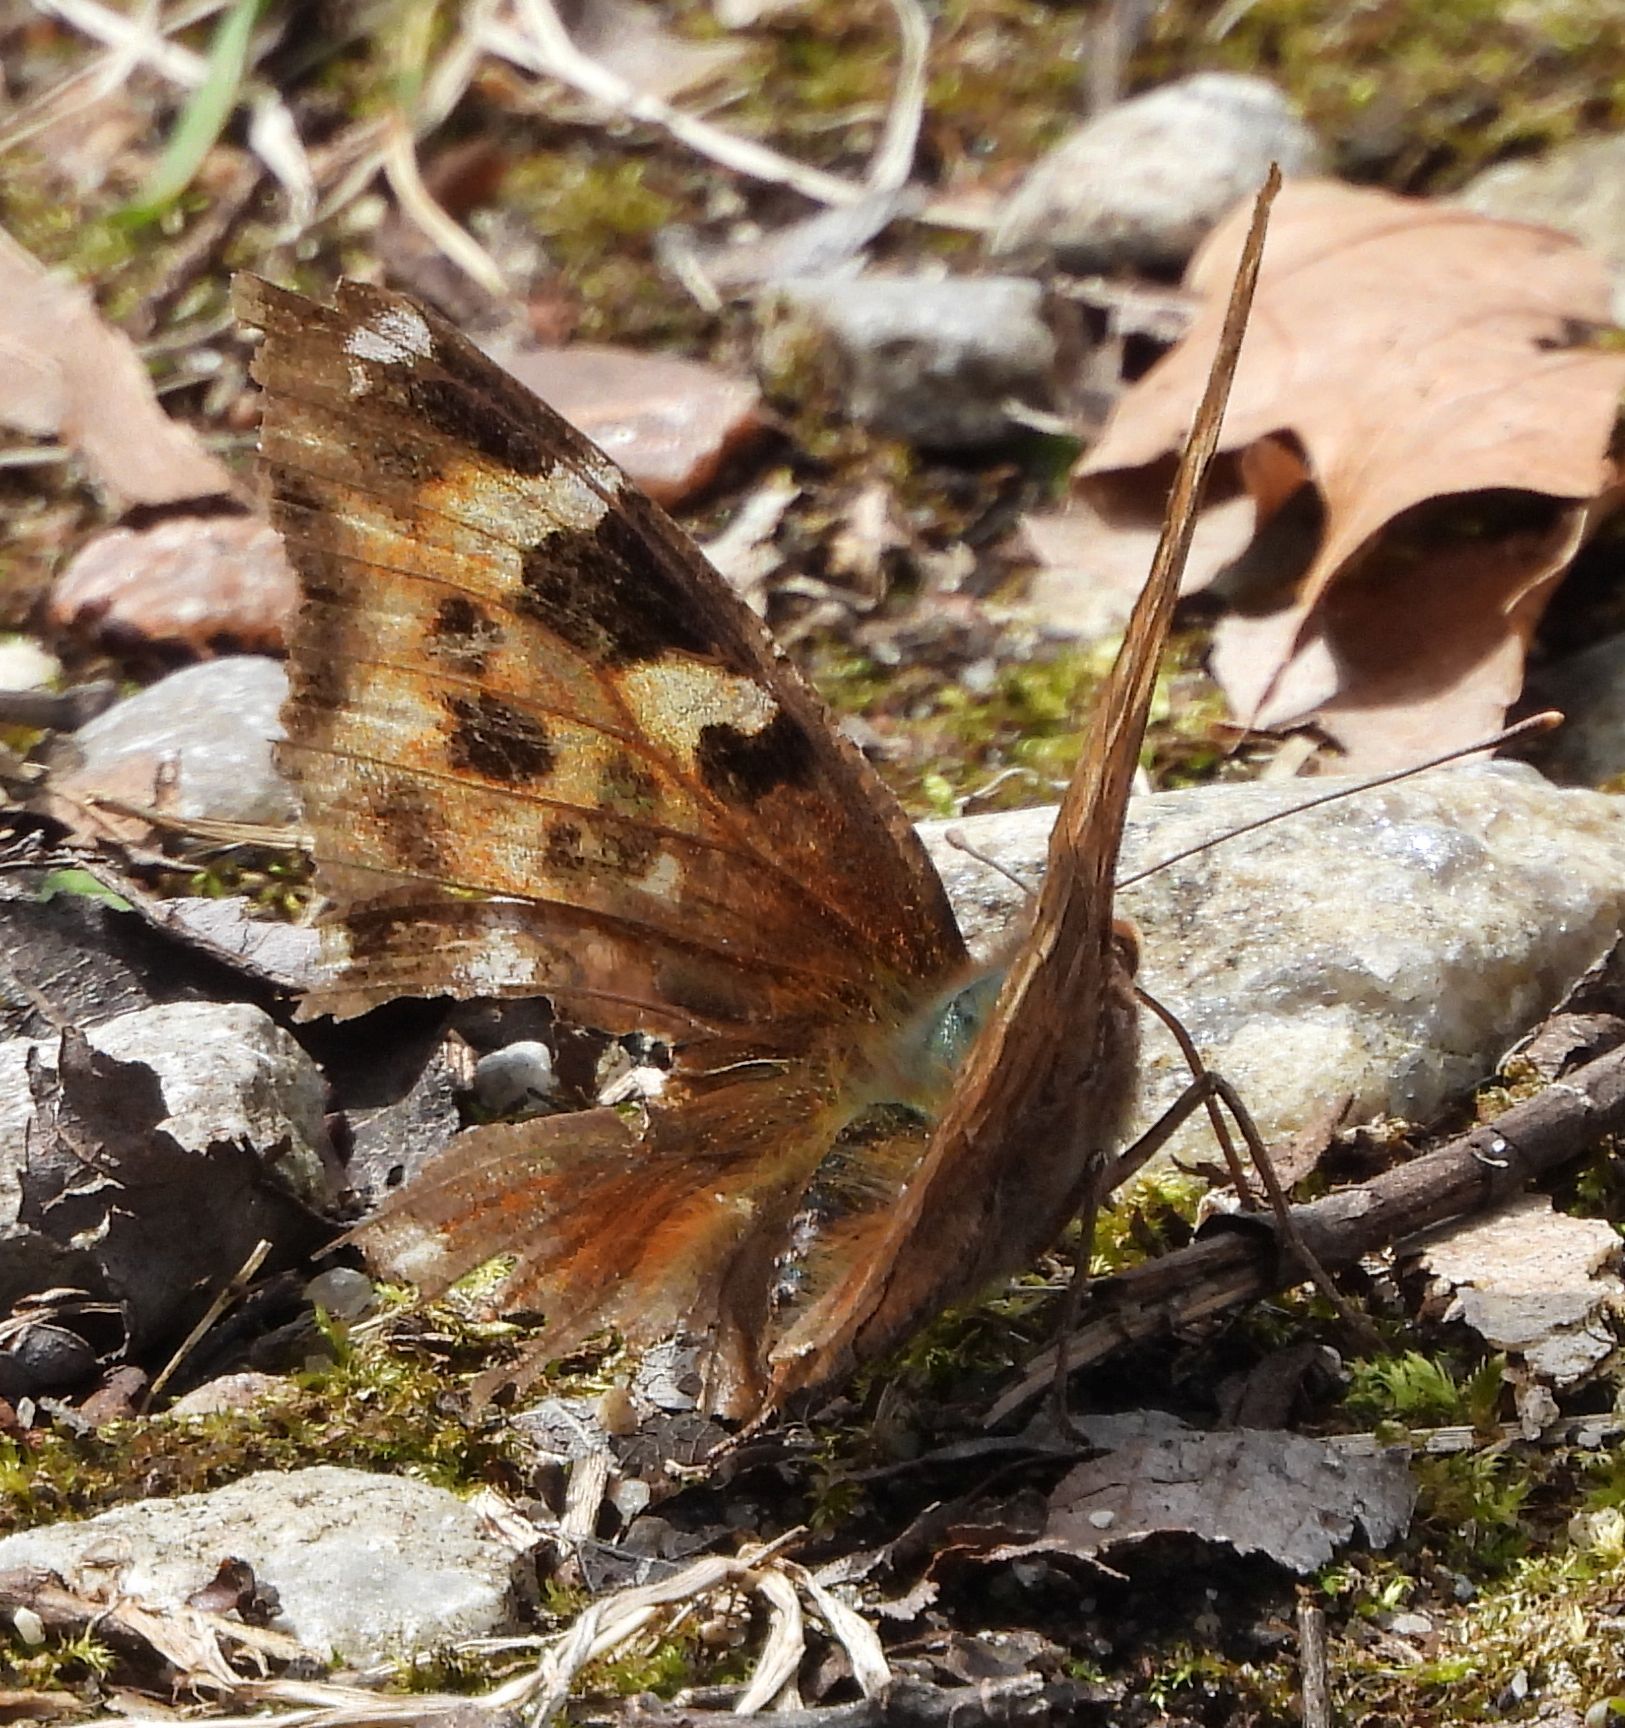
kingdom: Animalia
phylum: Arthropoda
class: Insecta
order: Lepidoptera
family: Nymphalidae
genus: Polygonia
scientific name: Polygonia vaualbum
